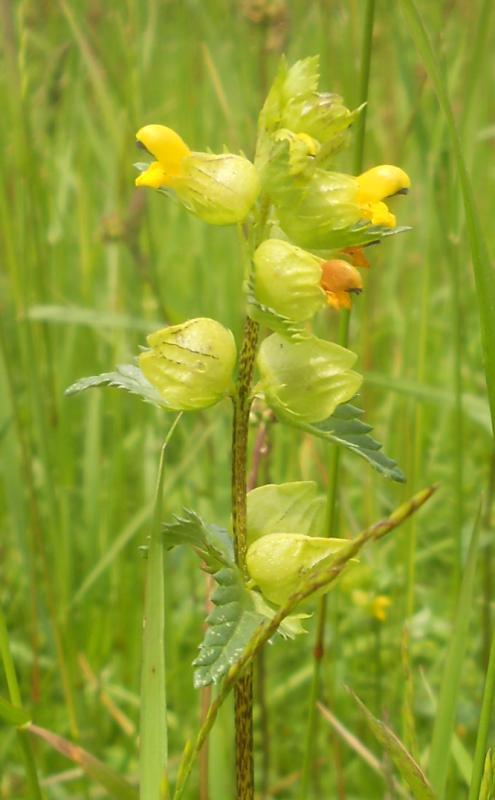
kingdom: Plantae
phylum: Tracheophyta
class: Magnoliopsida
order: Lamiales
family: Orobanchaceae
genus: Rhinanthus
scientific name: Rhinanthus minor
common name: Yellow-rattle
